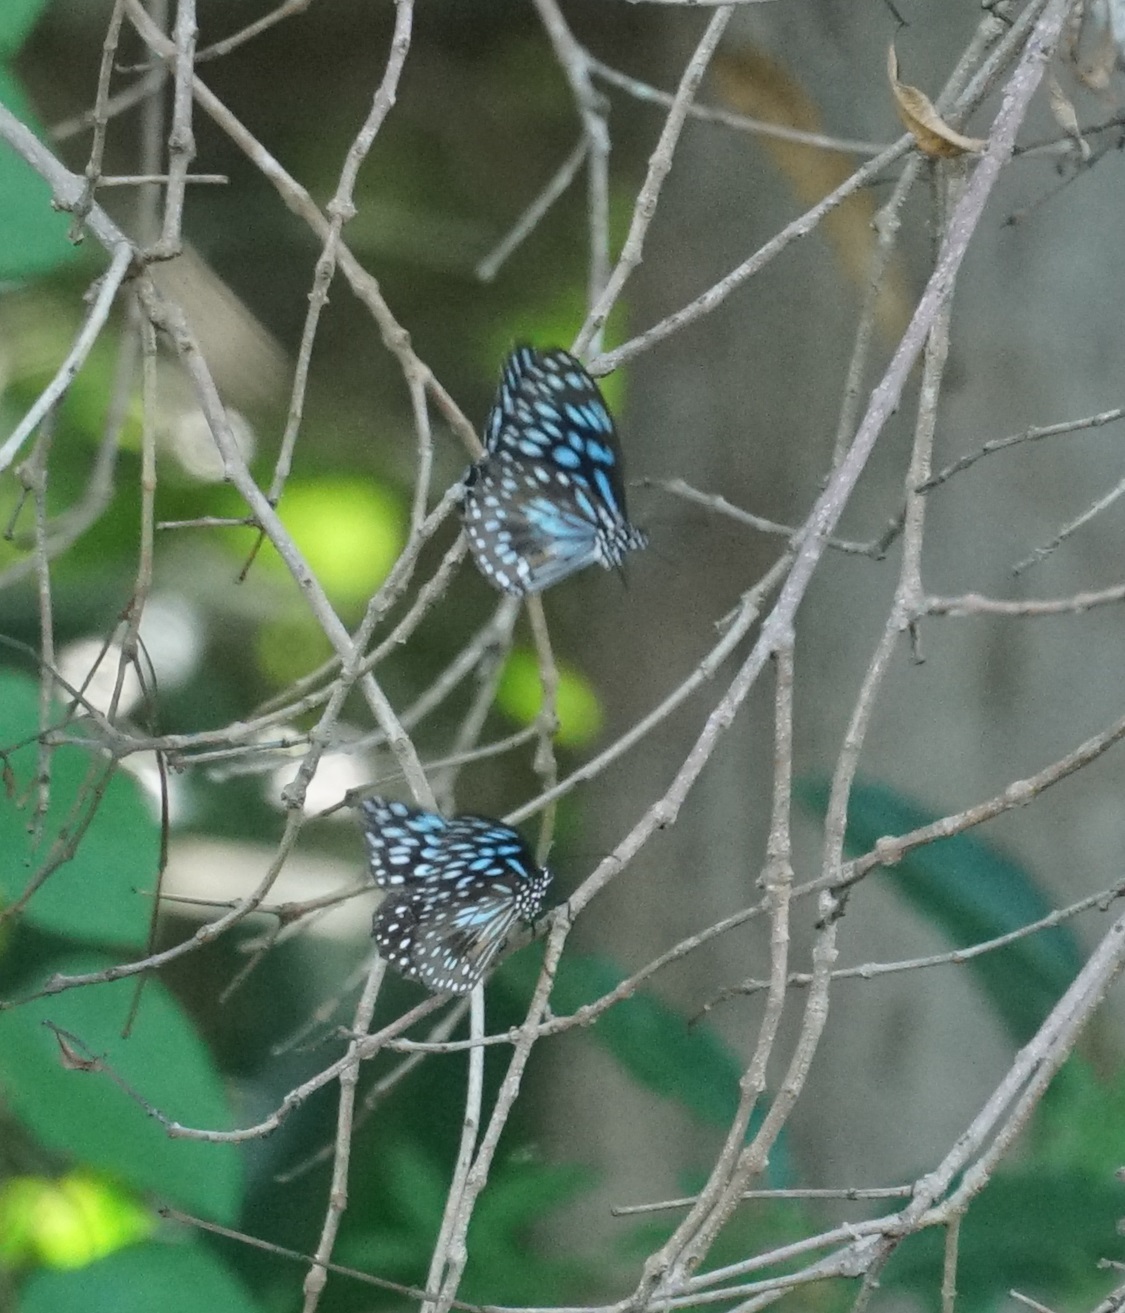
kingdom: Animalia
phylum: Arthropoda
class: Insecta
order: Lepidoptera
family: Nymphalidae
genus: Tirumala
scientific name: Tirumala hamata
